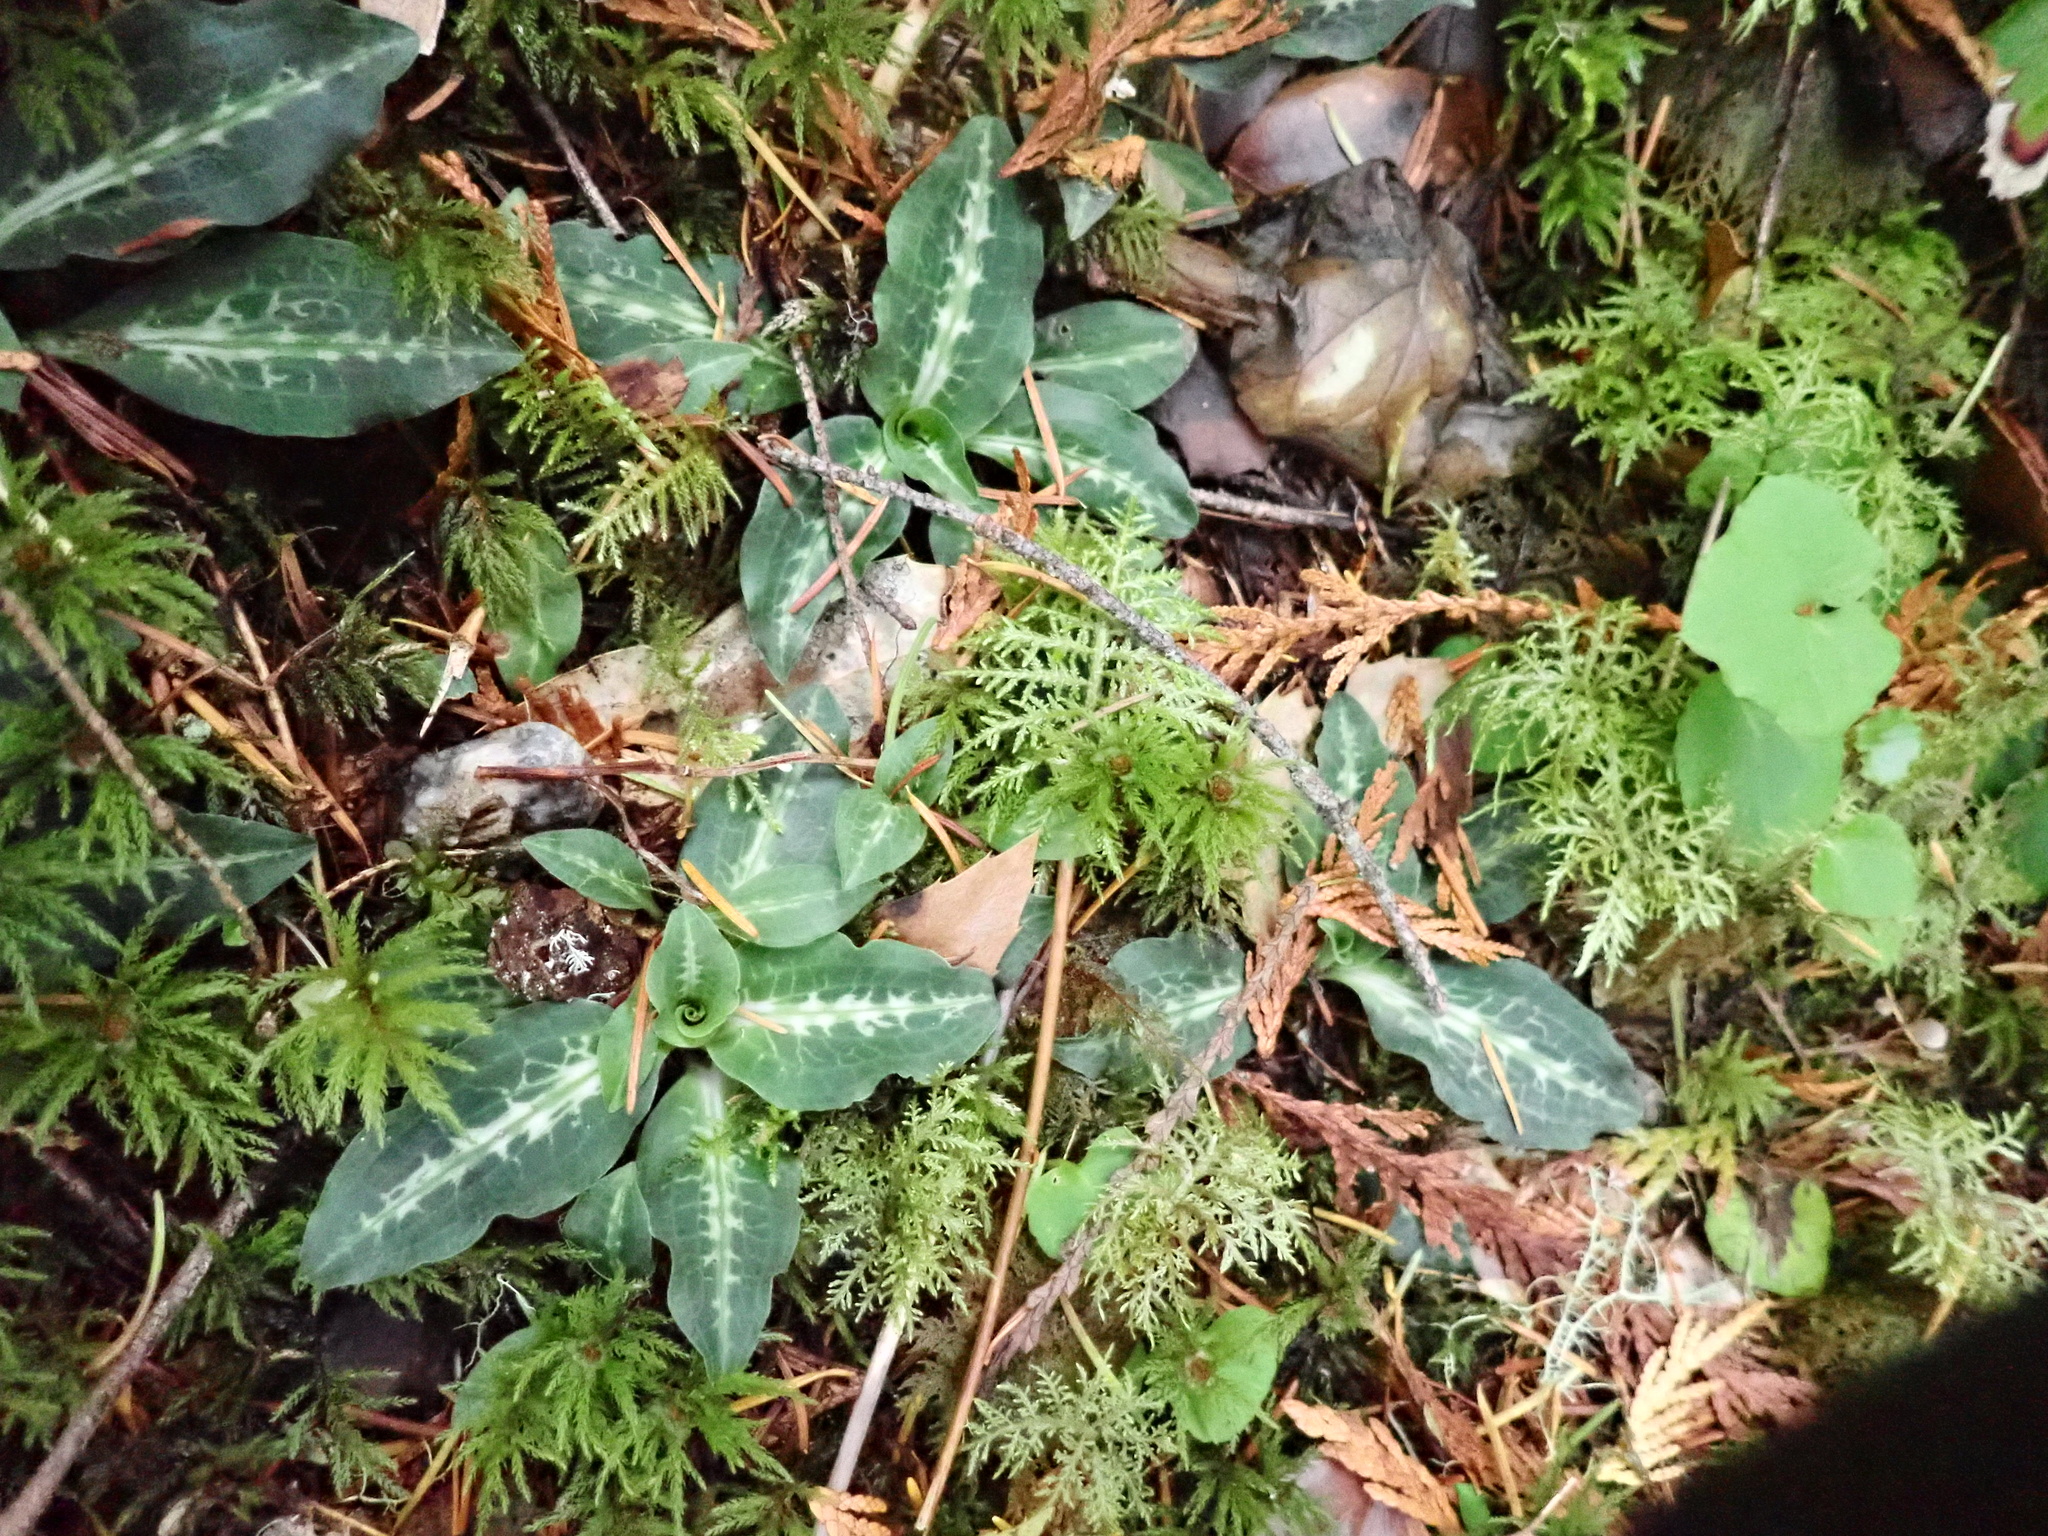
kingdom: Plantae
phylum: Tracheophyta
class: Liliopsida
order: Asparagales
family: Orchidaceae
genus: Goodyera
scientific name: Goodyera oblongifolia
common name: Giant rattlesnake-plantain
